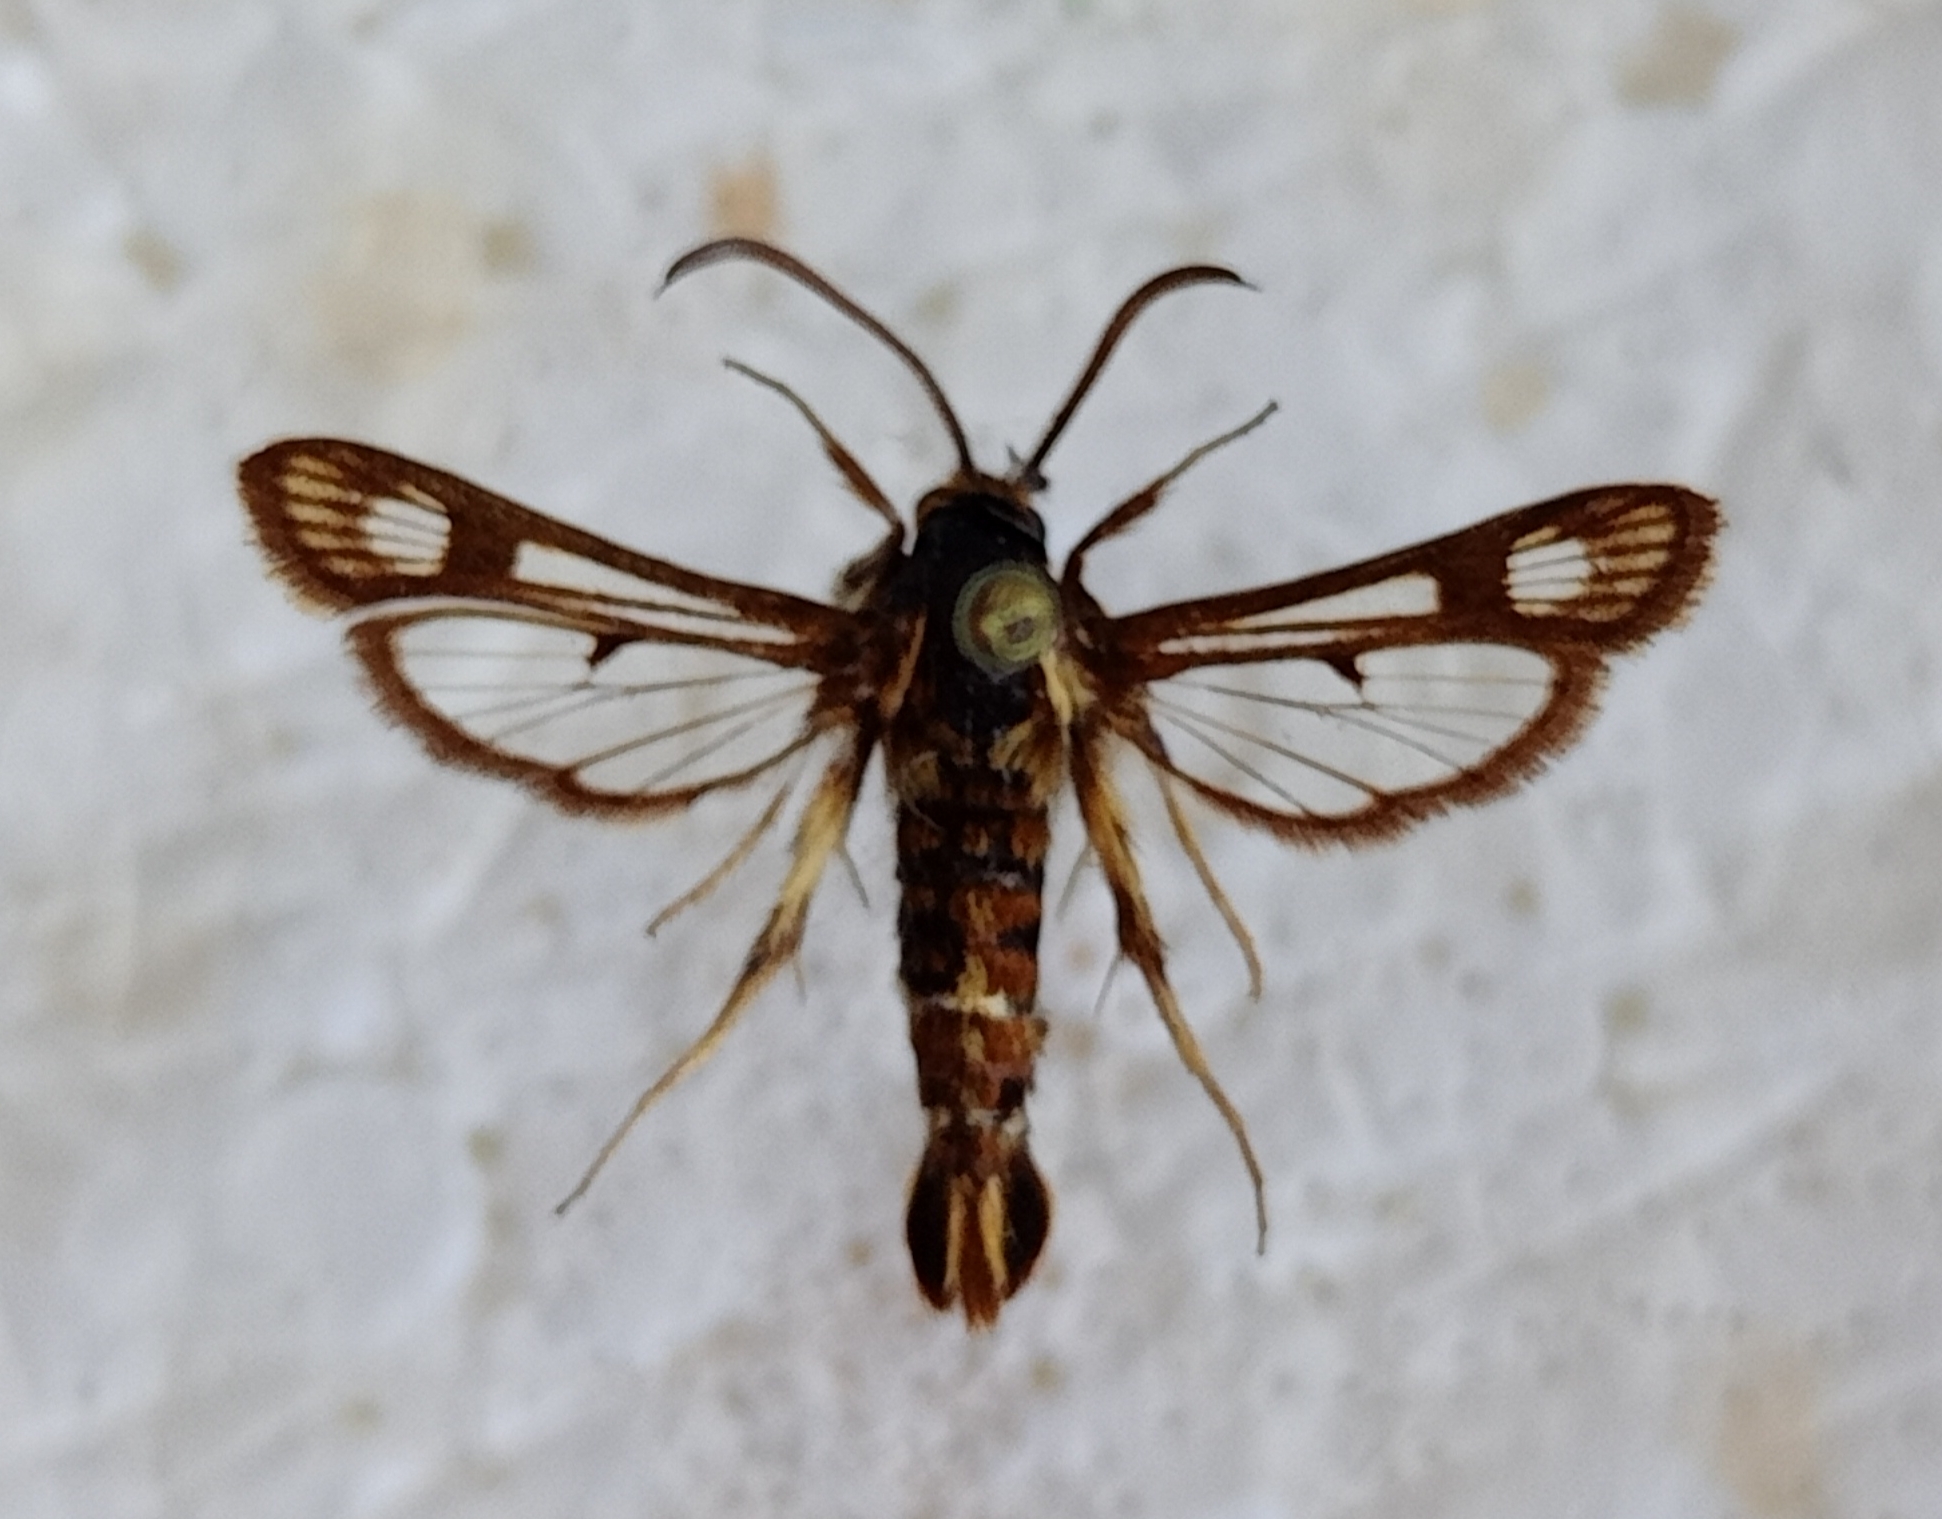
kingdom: Animalia
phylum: Arthropoda
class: Insecta
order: Lepidoptera
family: Sesiidae
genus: Chamaesphecia
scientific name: Chamaesphecia doleriformis
